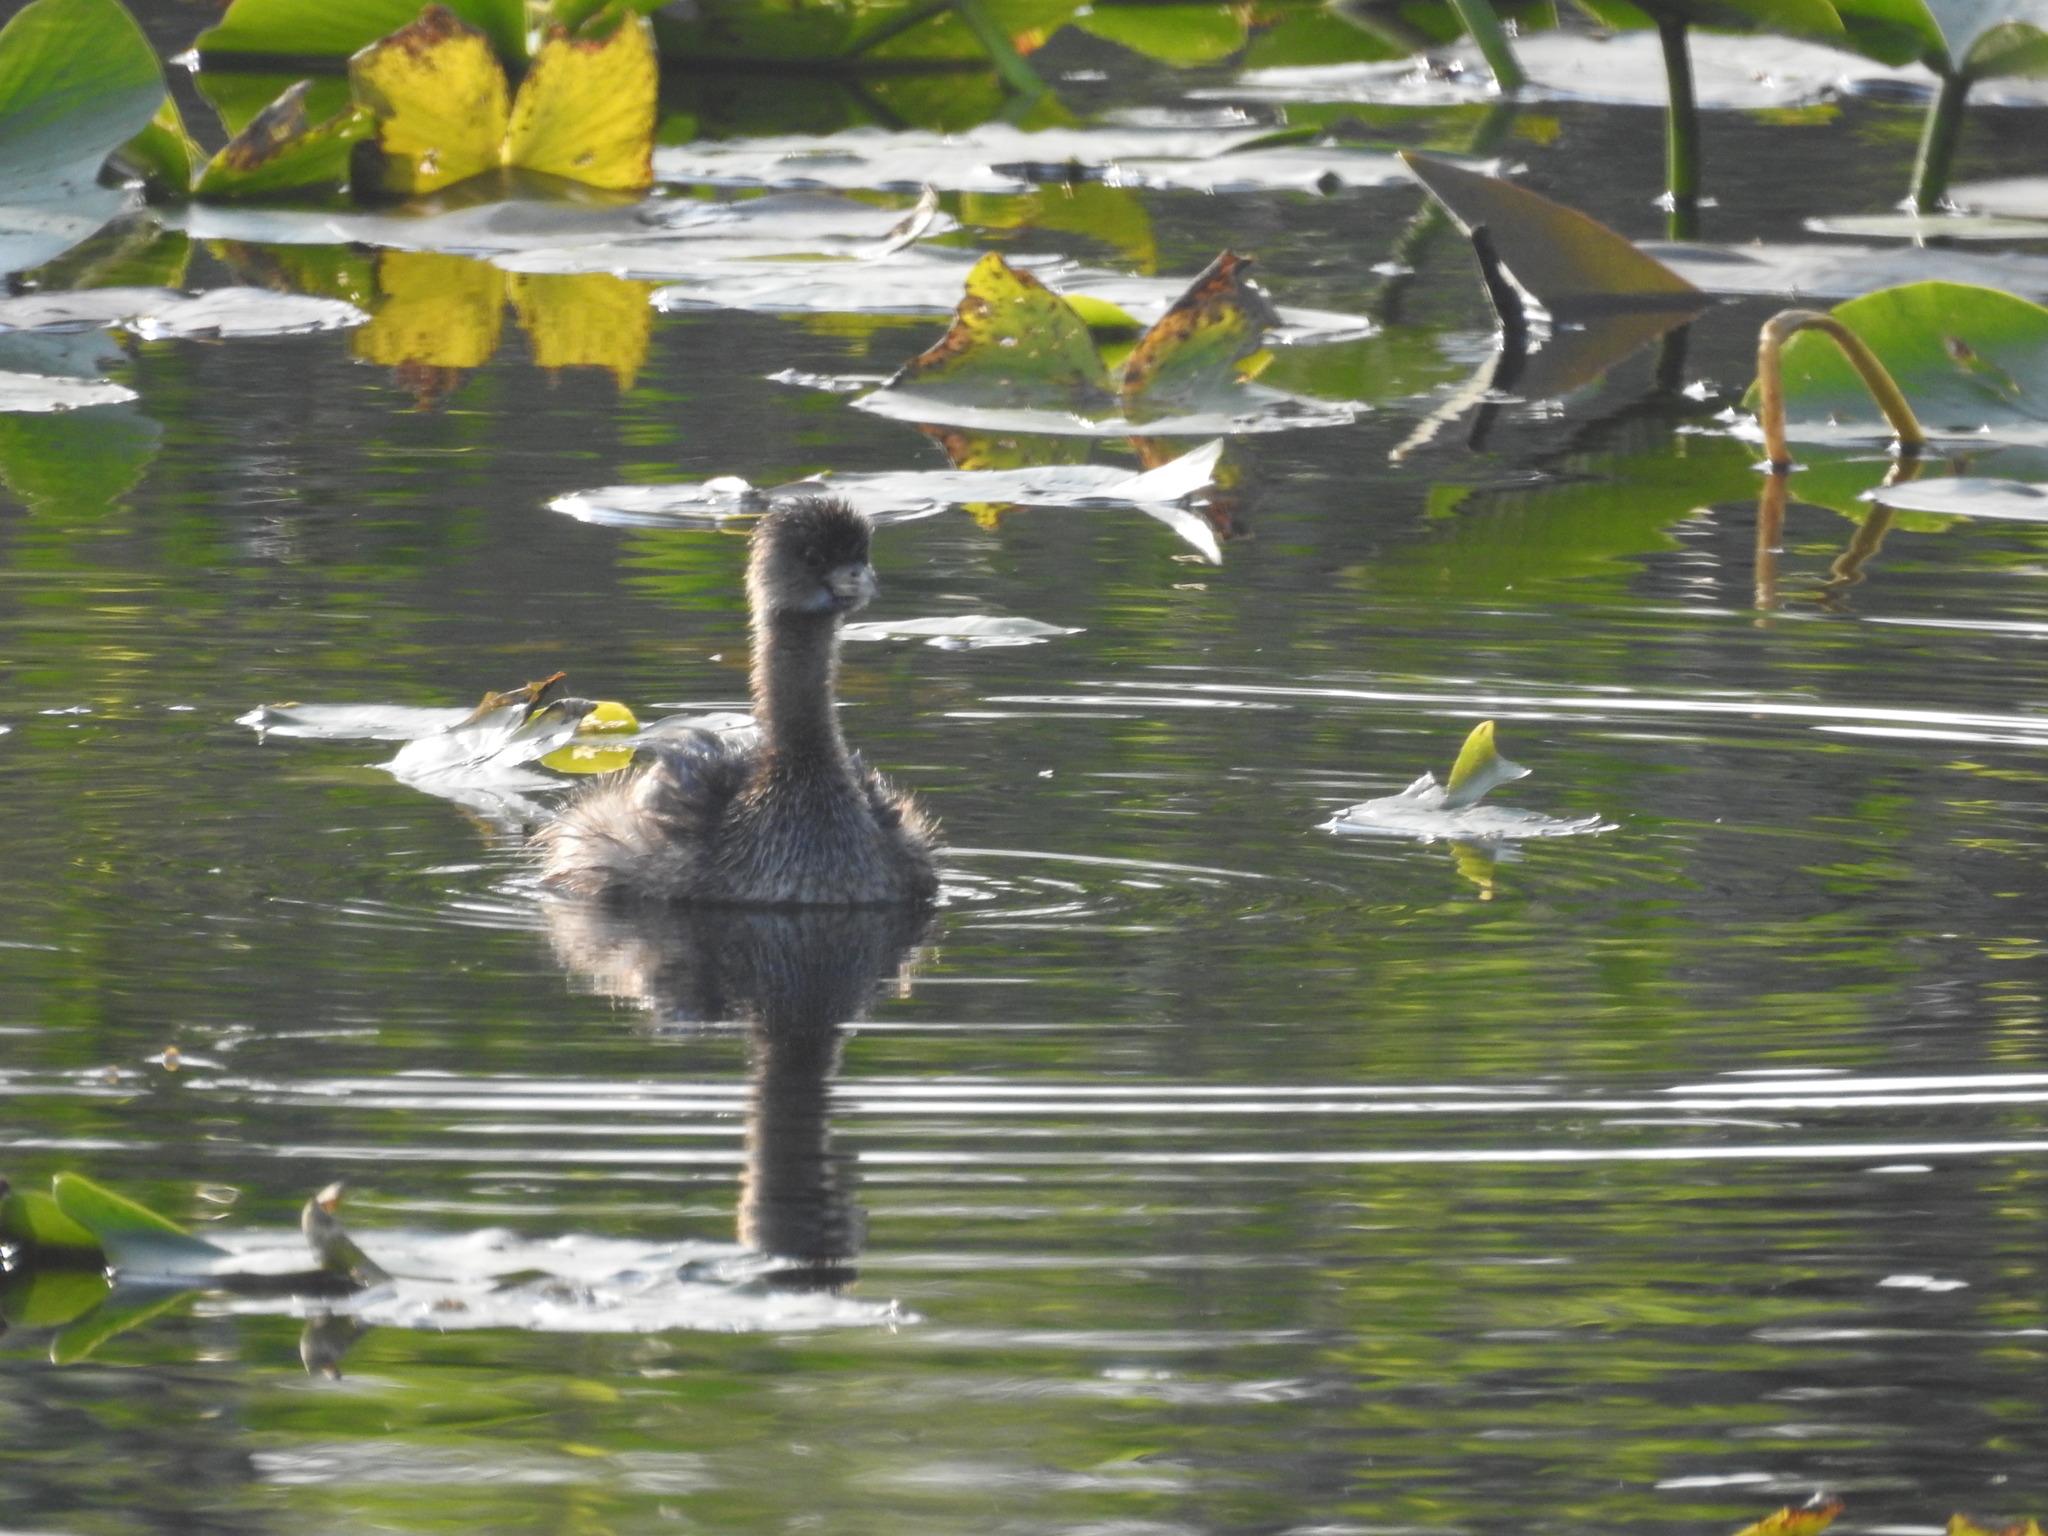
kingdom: Animalia
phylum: Chordata
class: Aves
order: Podicipediformes
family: Podicipedidae
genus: Podilymbus
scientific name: Podilymbus podiceps
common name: Pied-billed grebe
